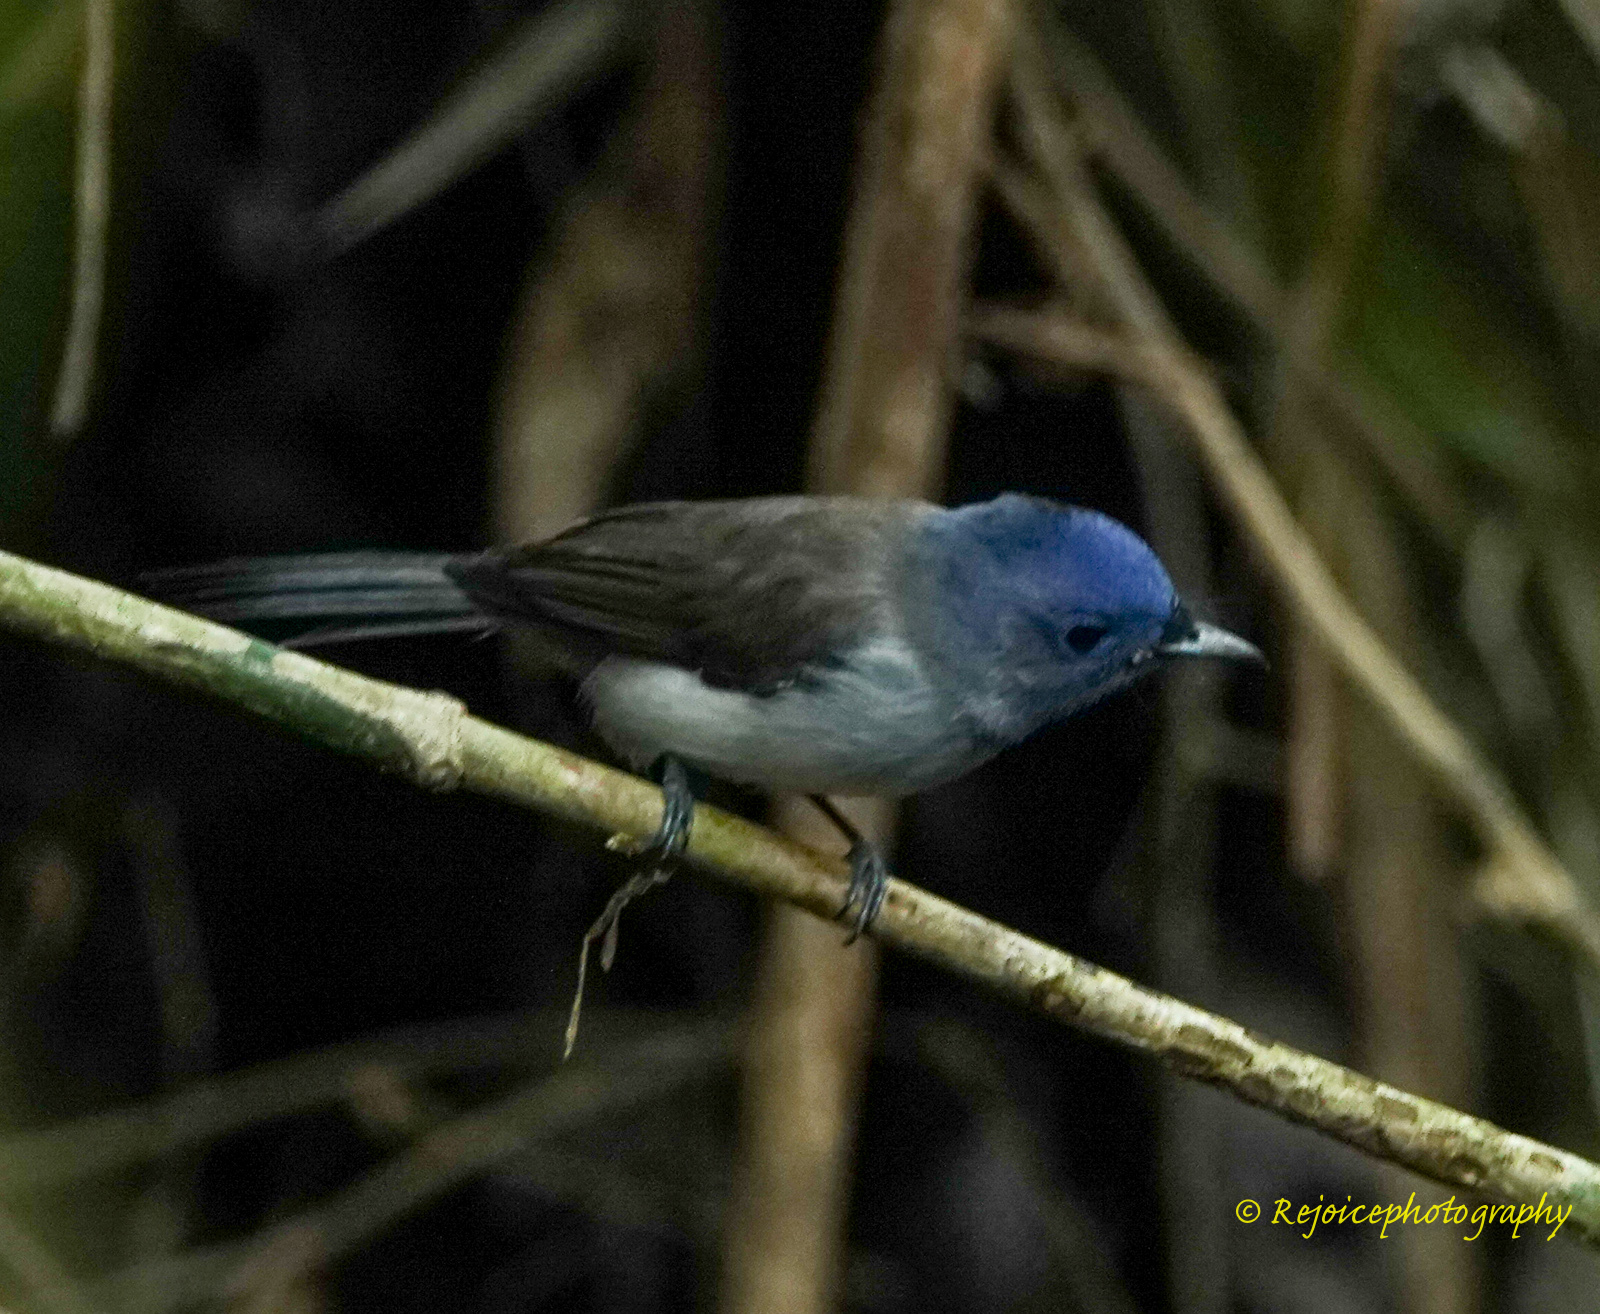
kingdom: Animalia
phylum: Chordata
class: Aves
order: Passeriformes
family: Monarchidae
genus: Hypothymis
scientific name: Hypothymis azurea
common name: Black-naped monarch
